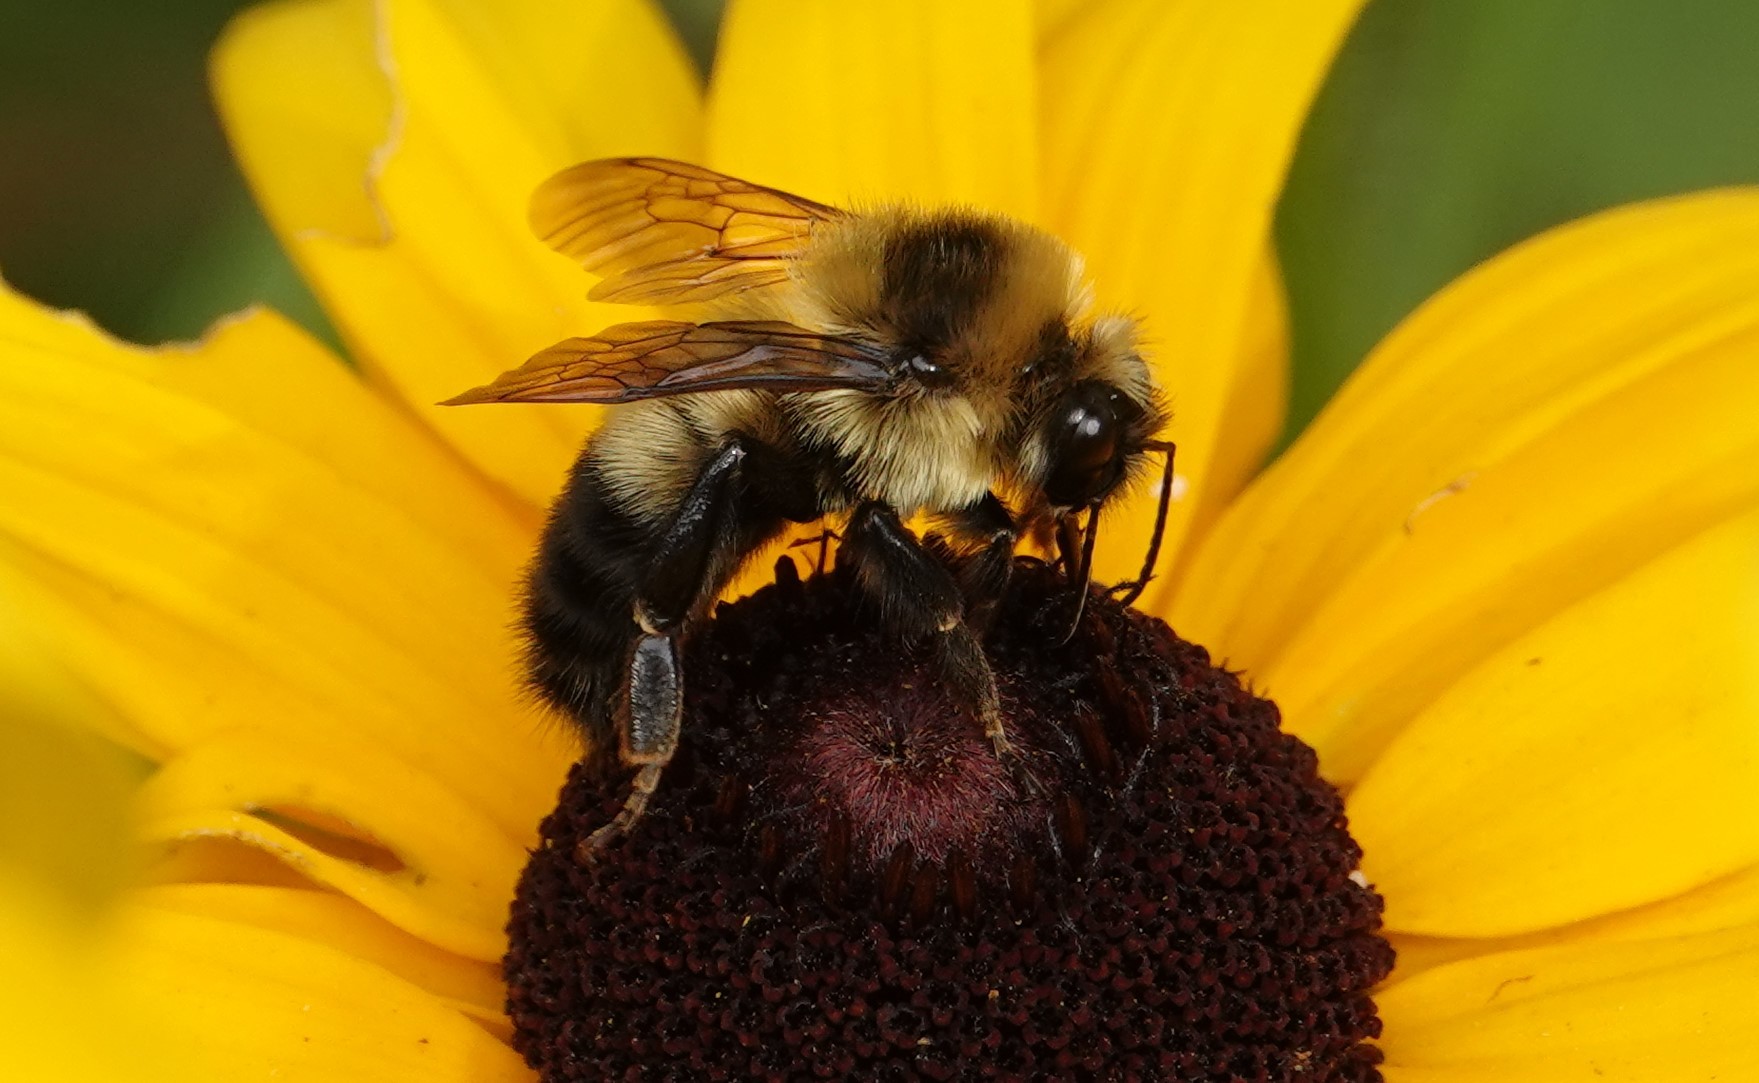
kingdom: Animalia
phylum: Arthropoda
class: Insecta
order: Hymenoptera
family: Apidae
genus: Bombus
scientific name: Bombus rufocinctus
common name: Red-belted bumble bee
